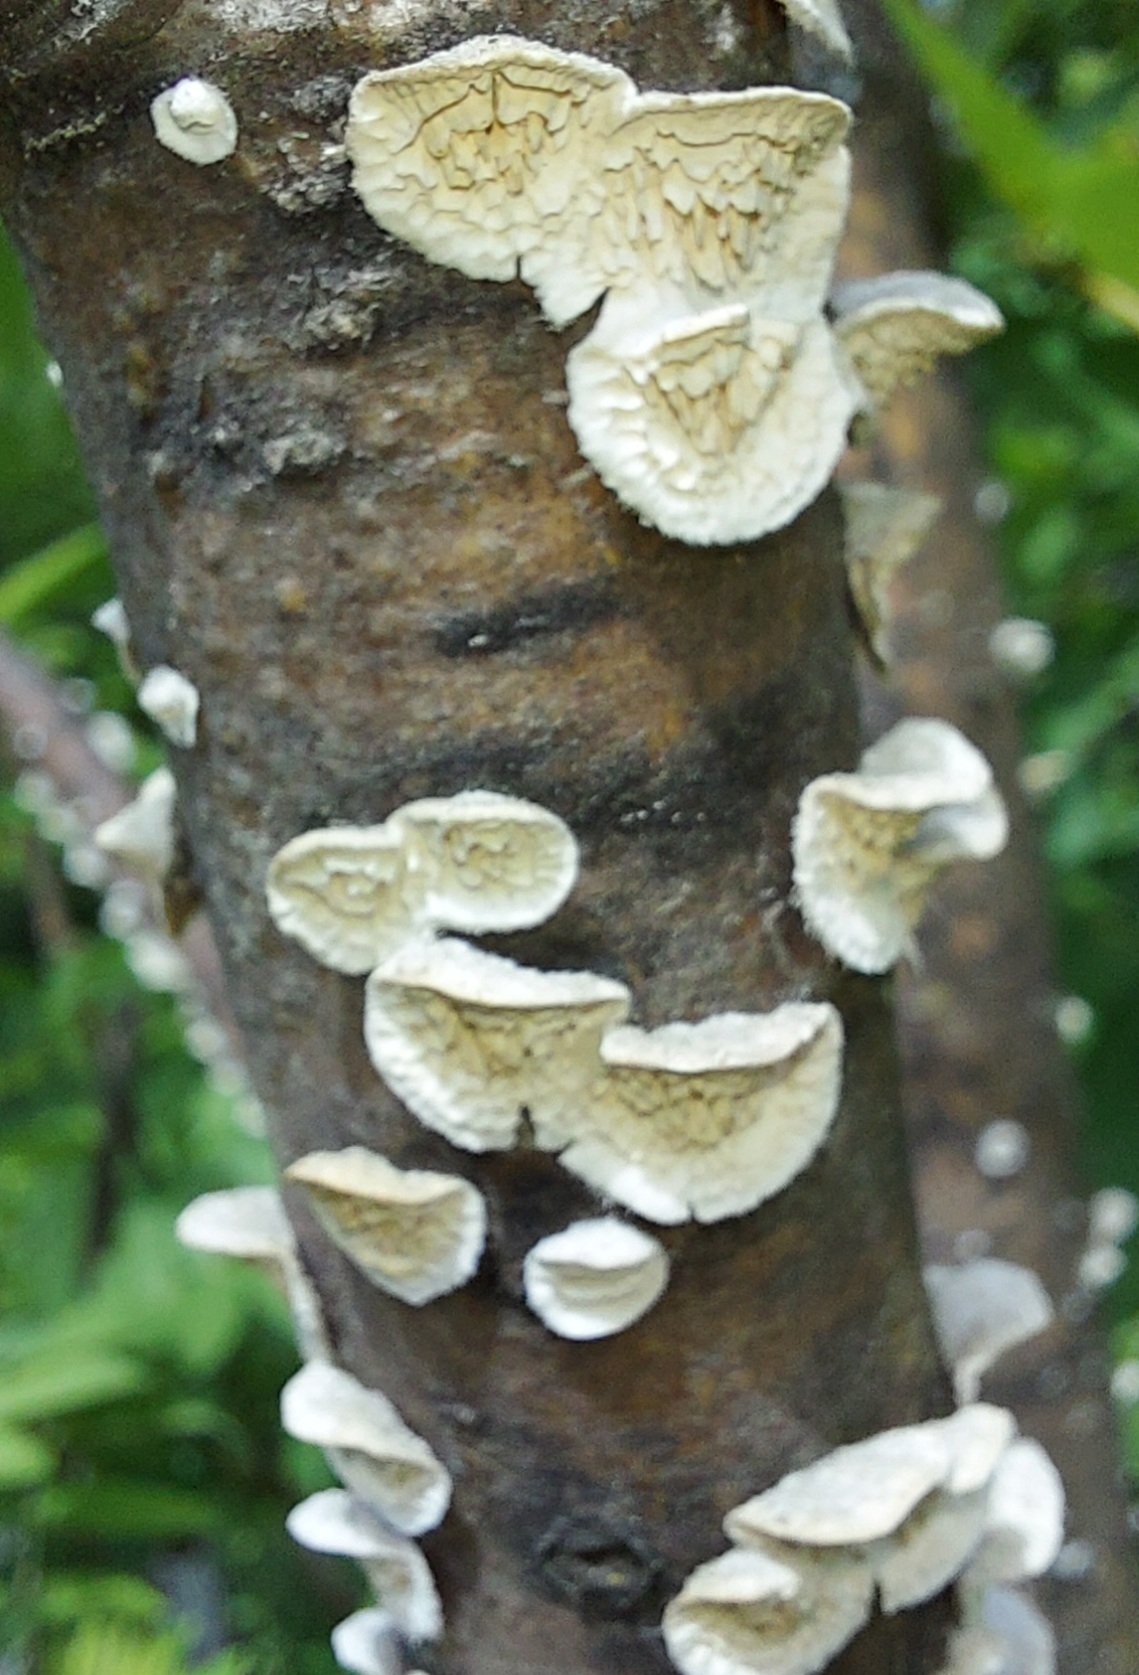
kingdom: Fungi
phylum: Basidiomycota
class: Agaricomycetes
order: Polyporales
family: Irpicaceae
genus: Irpex
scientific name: Irpex lacteus
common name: Milk-white toothed polypore
